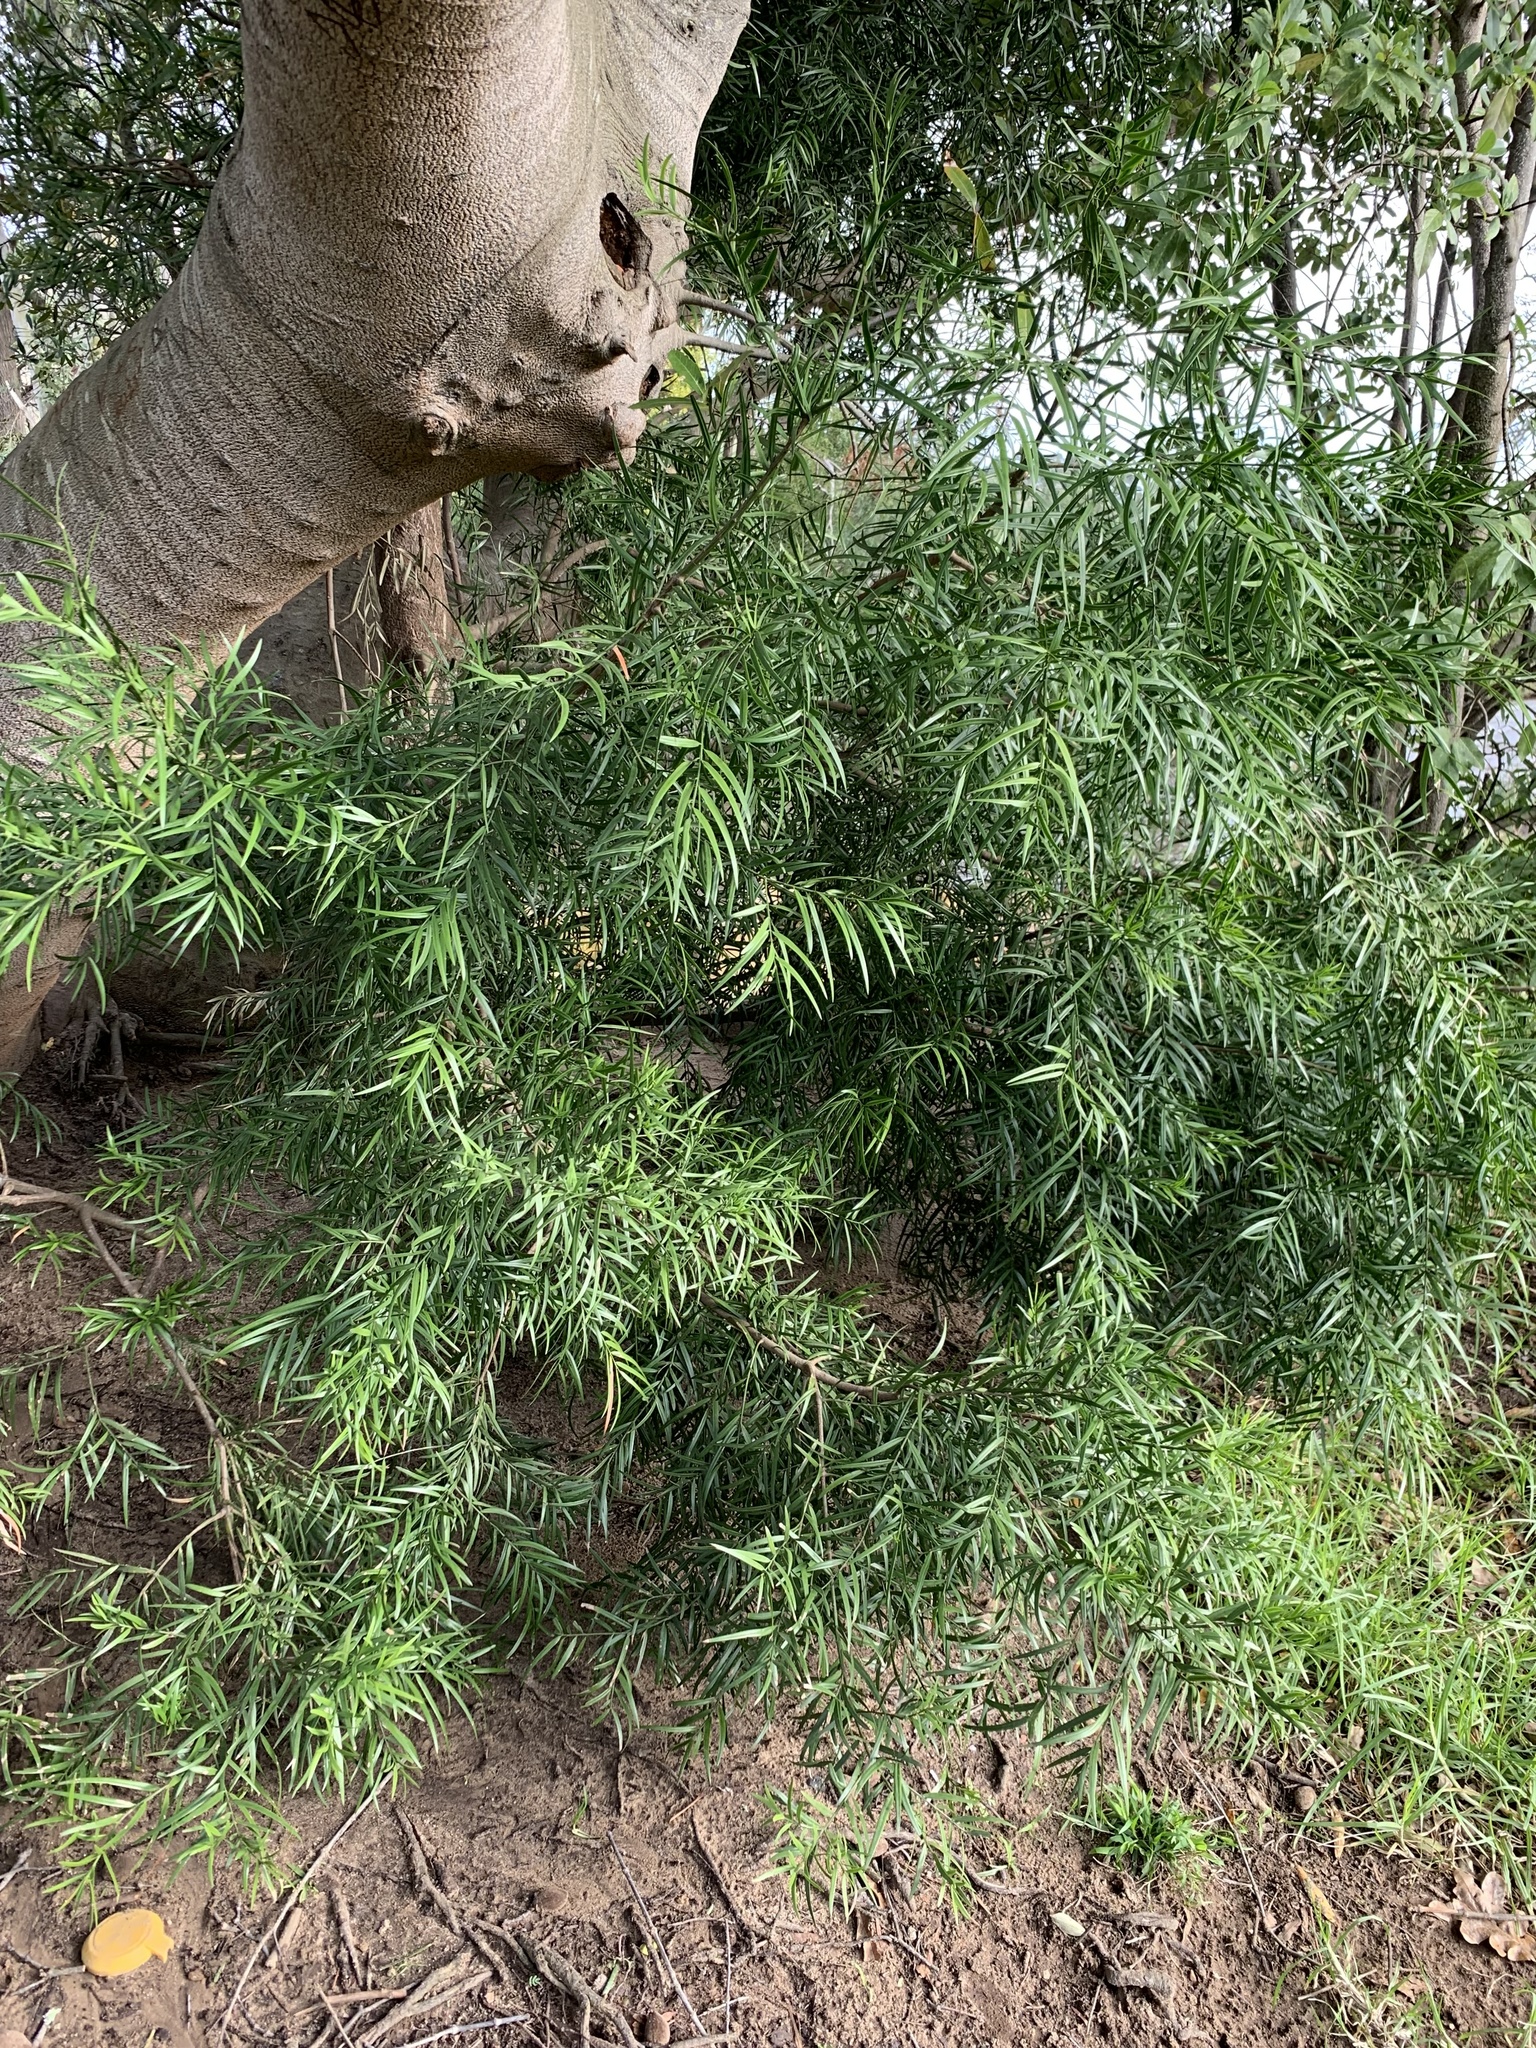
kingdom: Plantae
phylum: Tracheophyta
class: Pinopsida
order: Pinales
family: Podocarpaceae
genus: Afrocarpus
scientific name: Afrocarpus falcatus
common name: Bastard yellowwood
